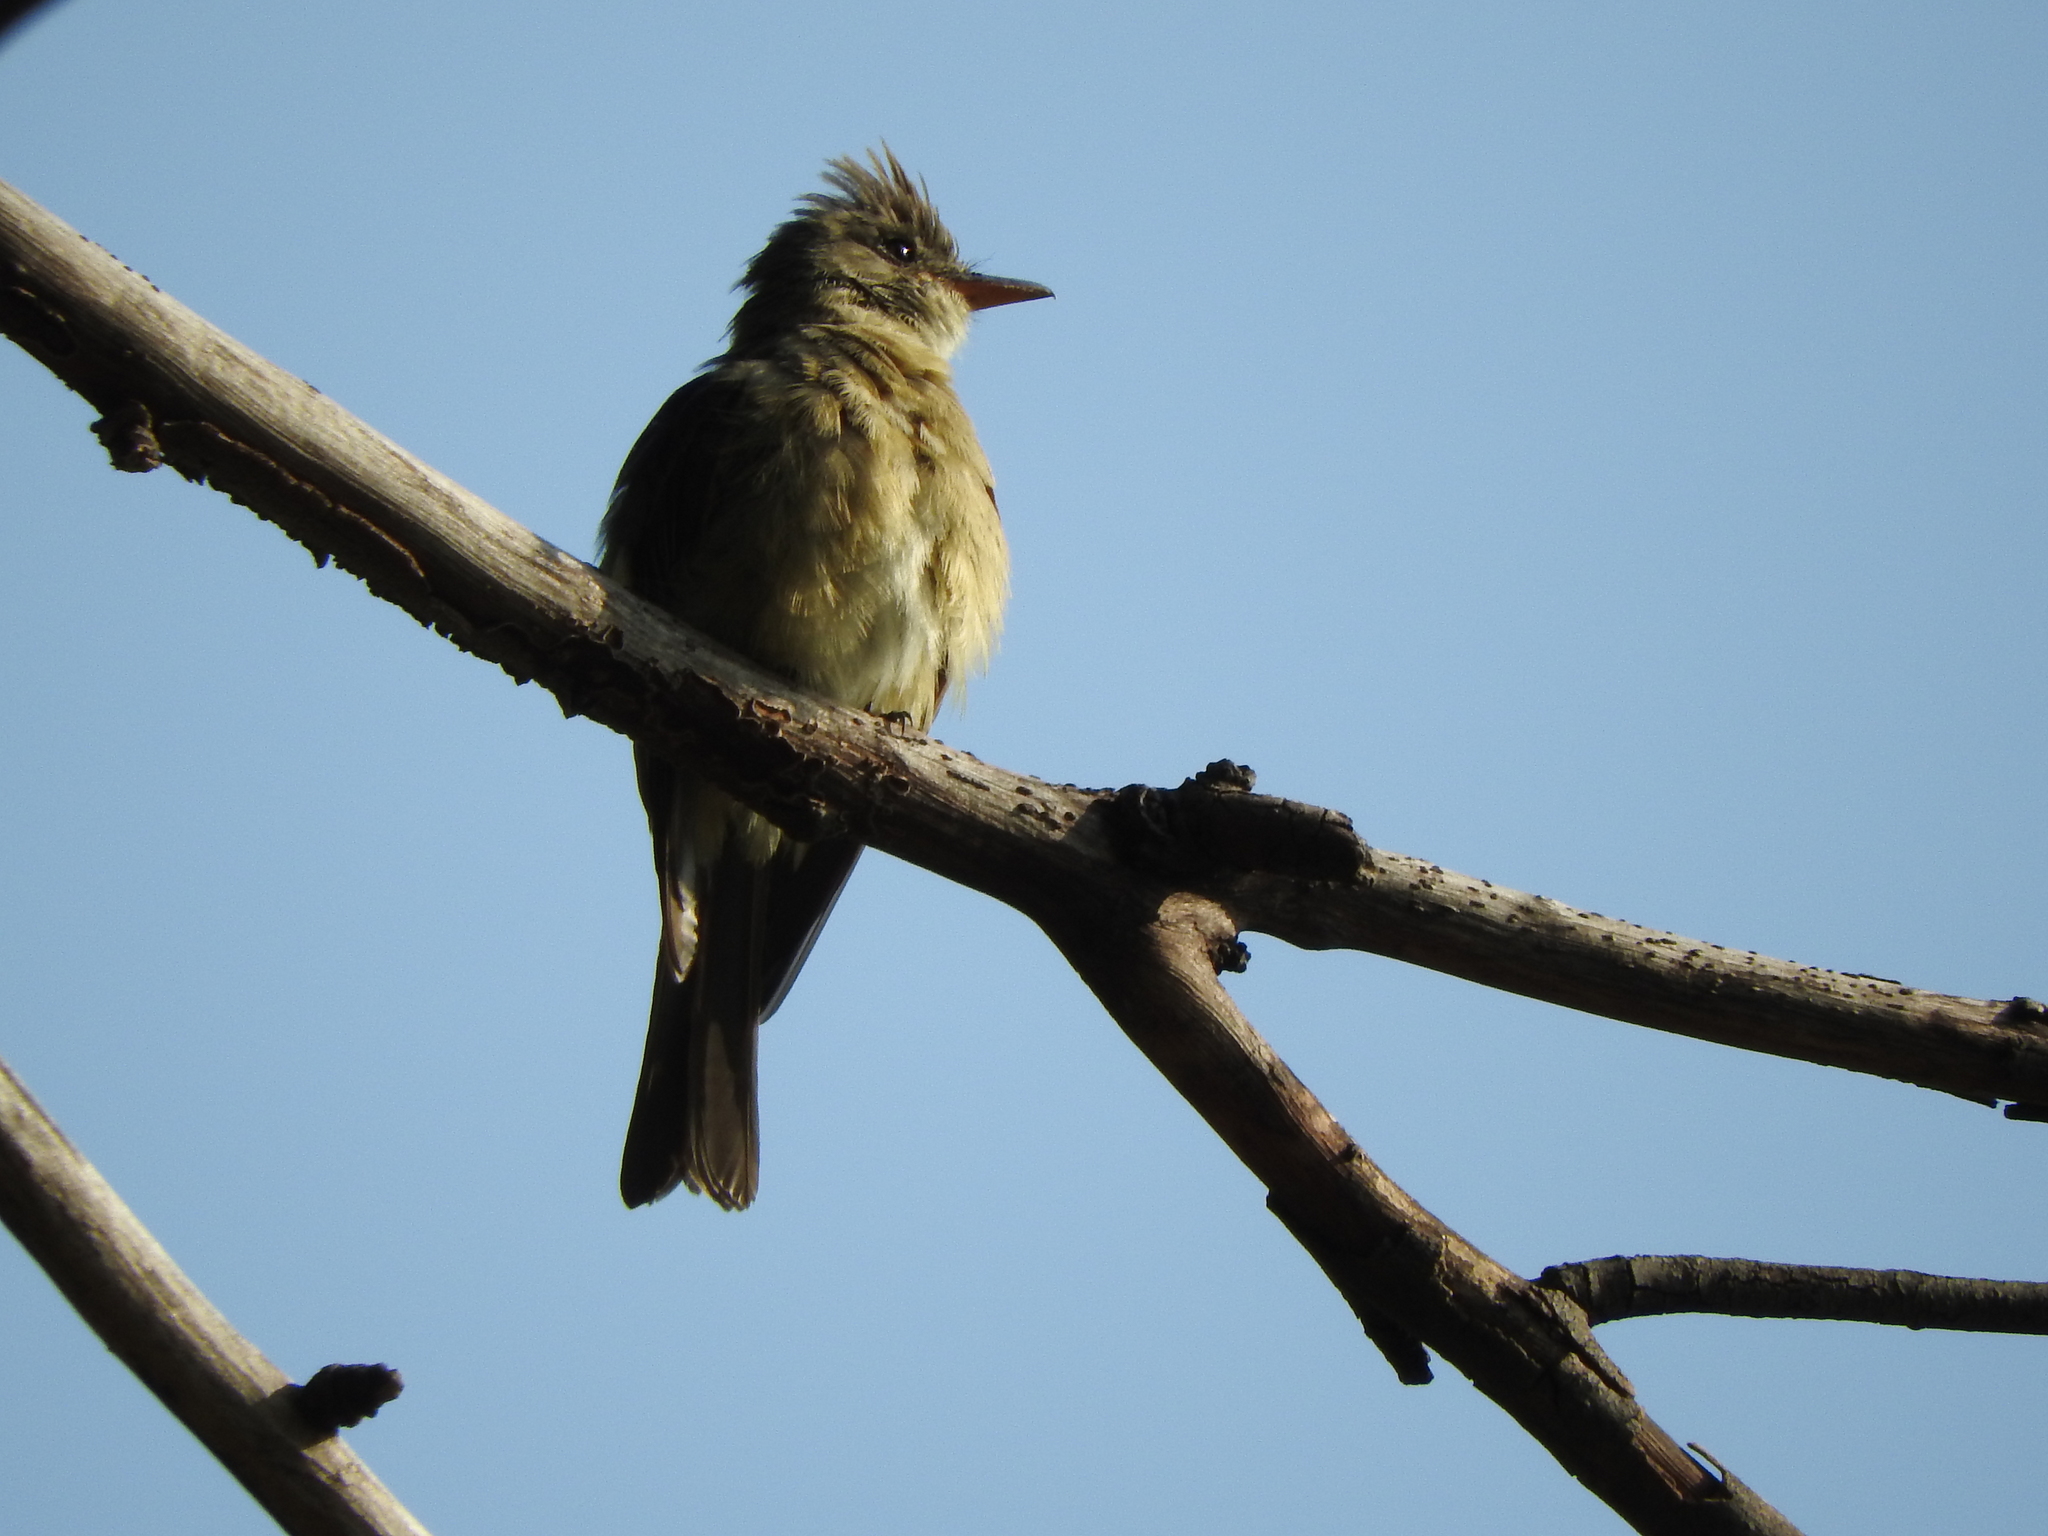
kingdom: Animalia
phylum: Chordata
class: Aves
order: Passeriformes
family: Tyrannidae
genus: Contopus
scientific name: Contopus pertinax
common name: Greater pewee
